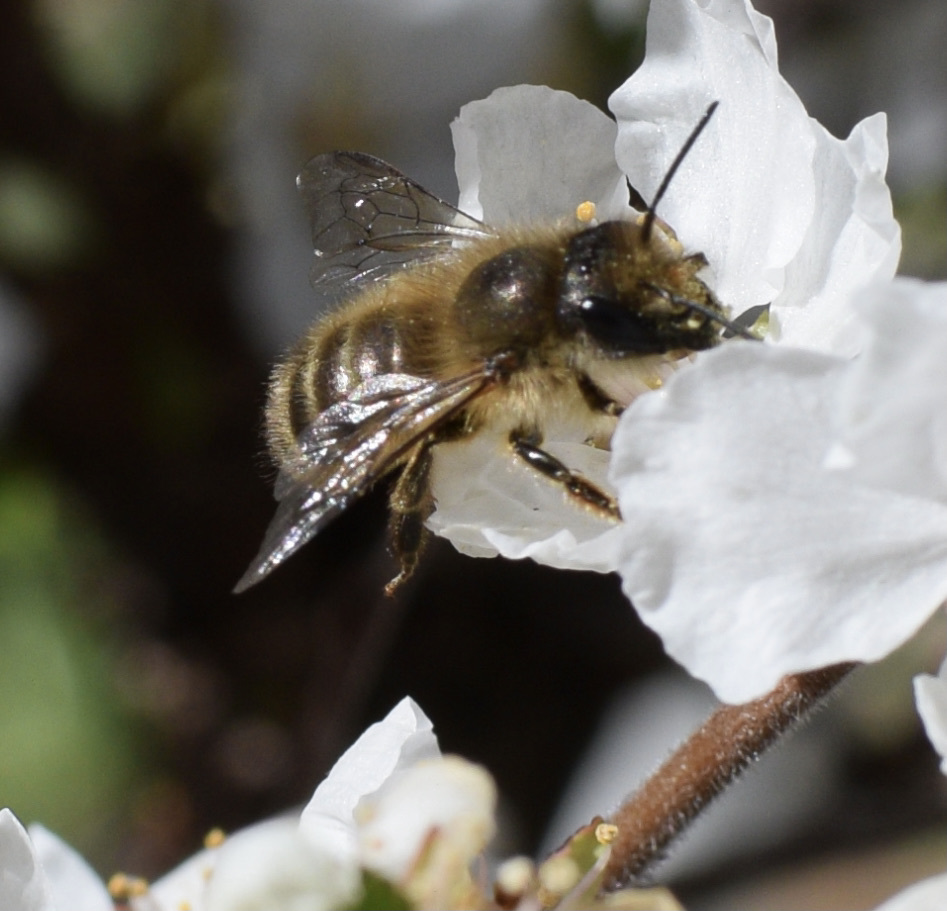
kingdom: Animalia
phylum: Arthropoda
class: Insecta
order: Hymenoptera
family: Megachilidae
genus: Osmia
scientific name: Osmia cornifrons
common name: Horn-faced bee
